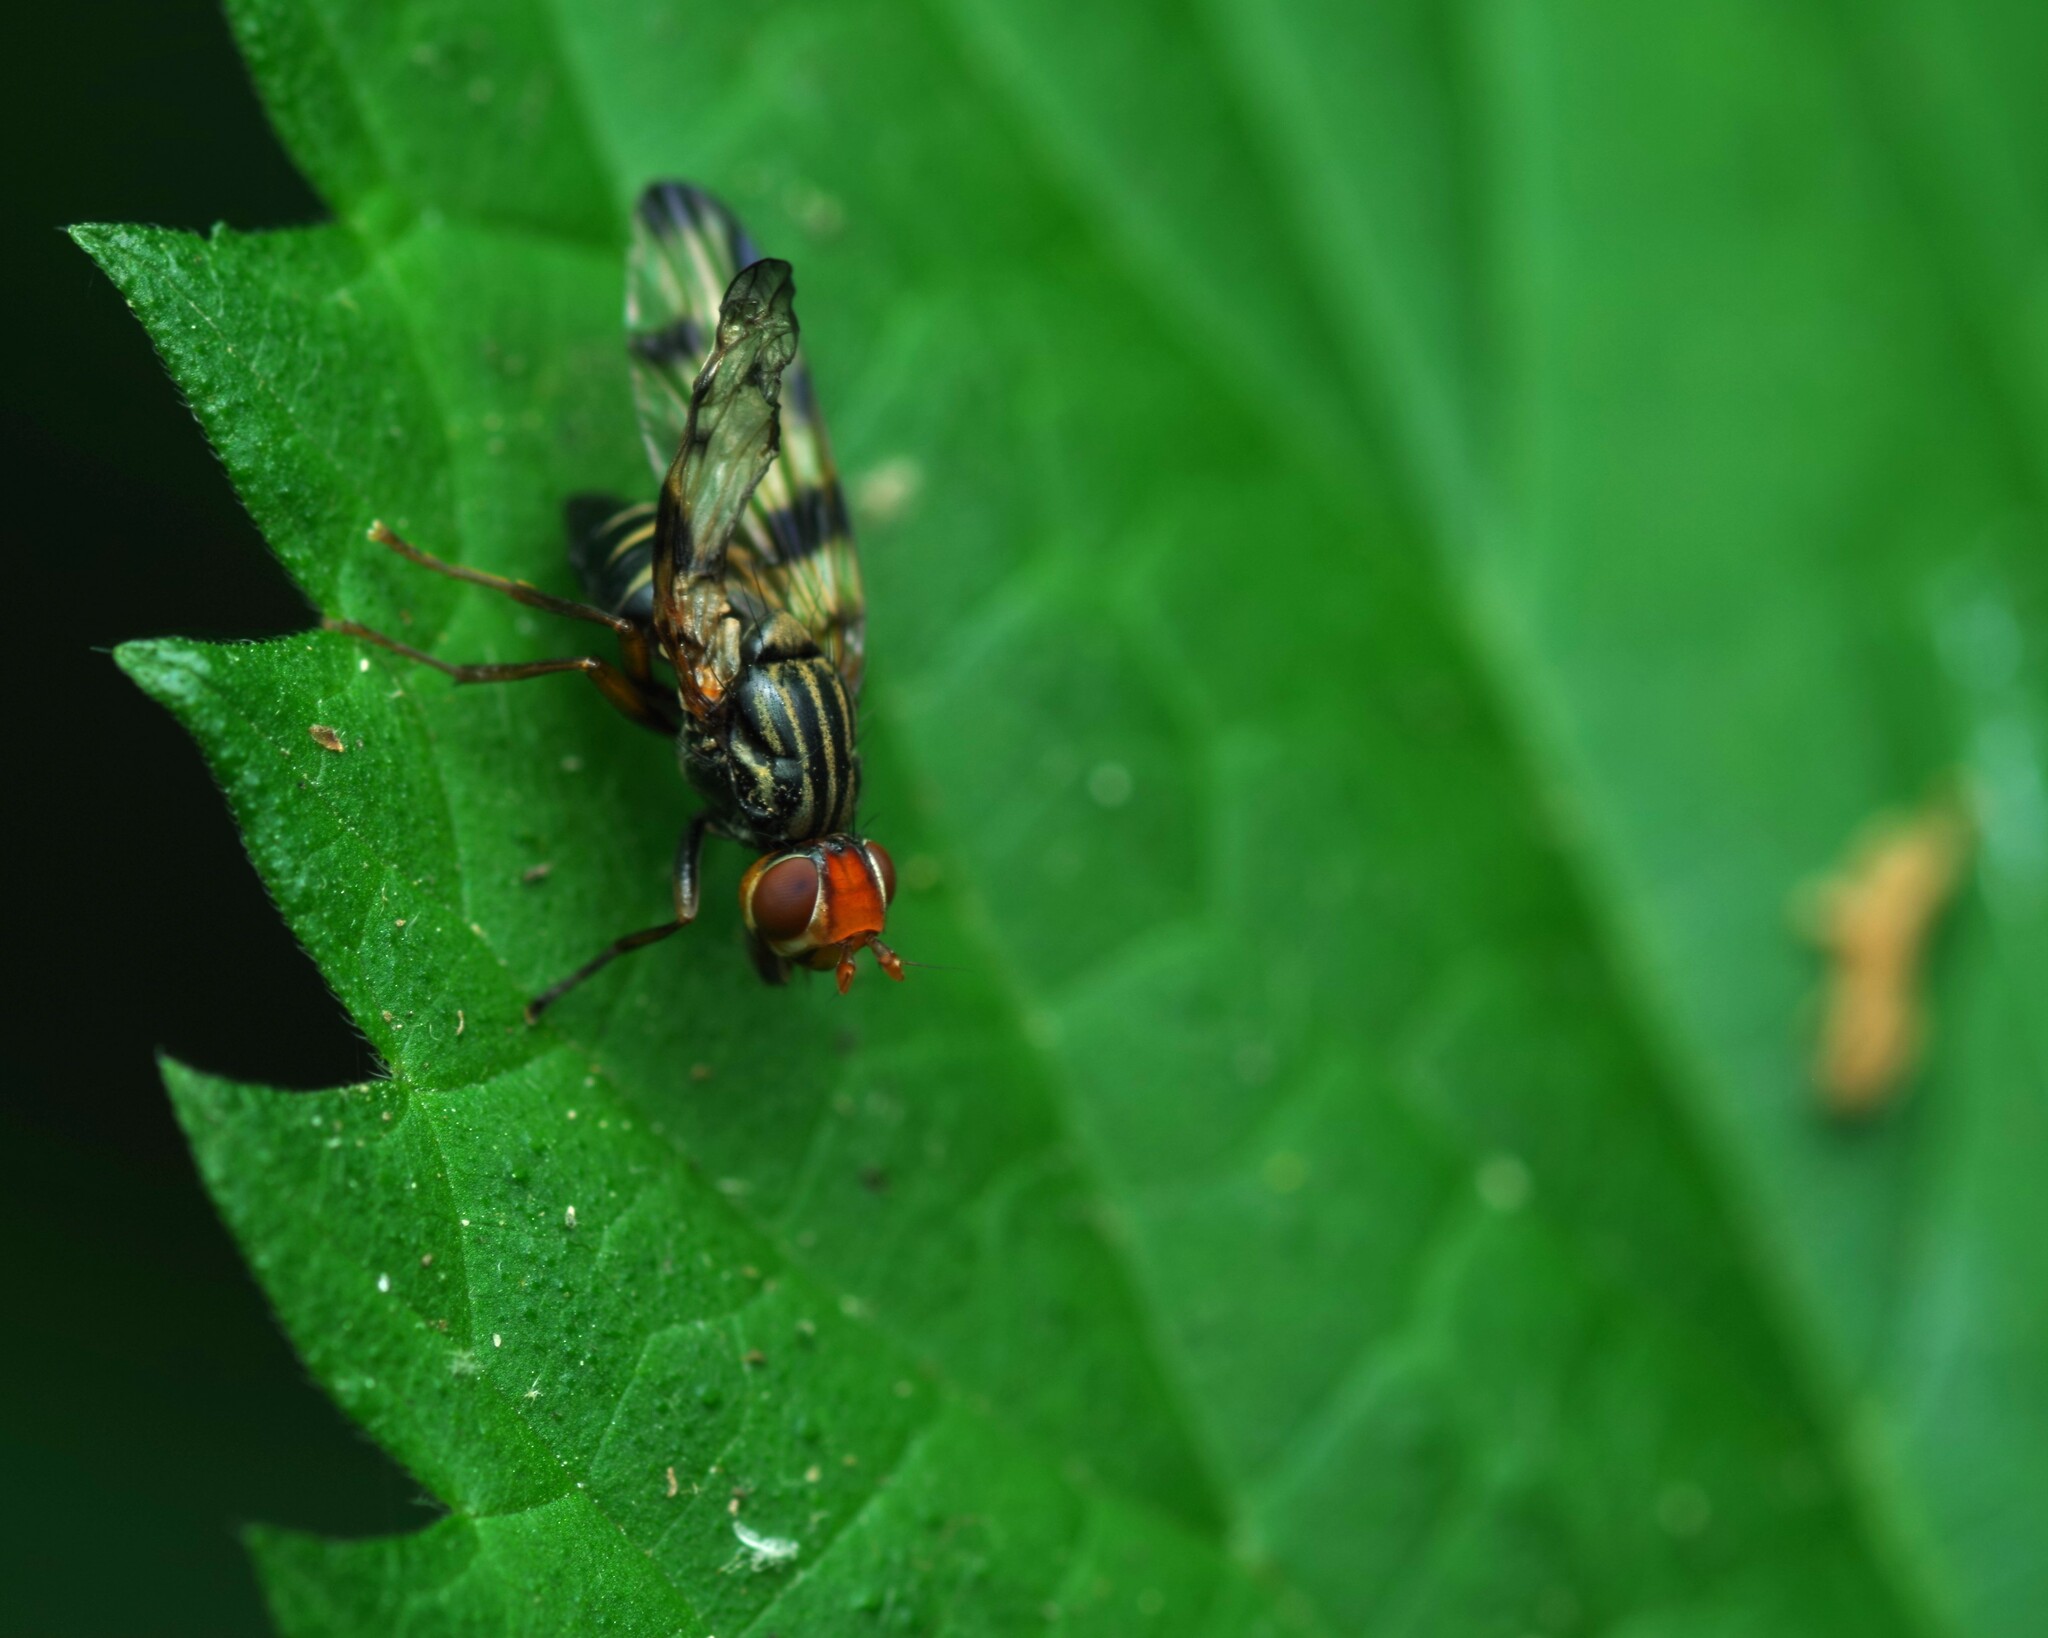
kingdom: Animalia
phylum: Arthropoda
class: Insecta
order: Diptera
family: Ulidiidae
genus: Otites
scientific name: Otites porcus
